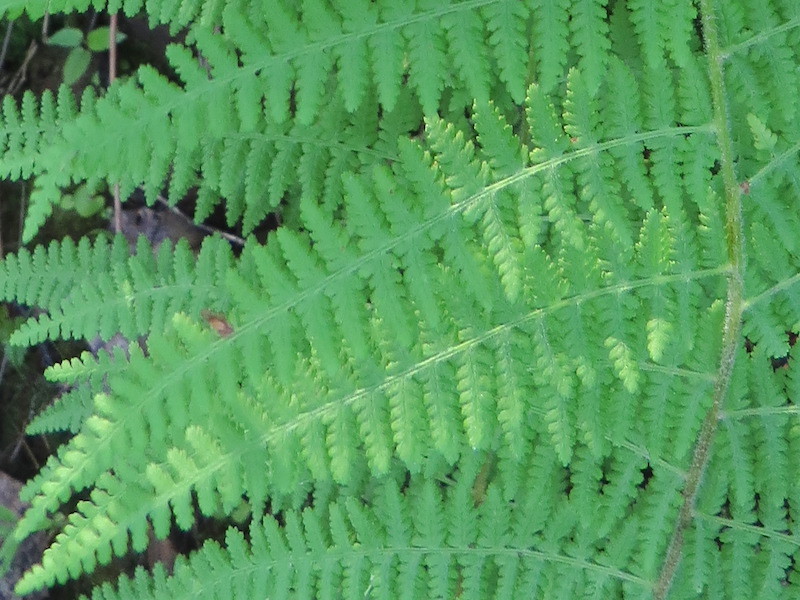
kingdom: Plantae
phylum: Tracheophyta
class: Polypodiopsida
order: Polypodiales
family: Dennstaedtiaceae
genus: Sitobolium
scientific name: Sitobolium punctilobum
